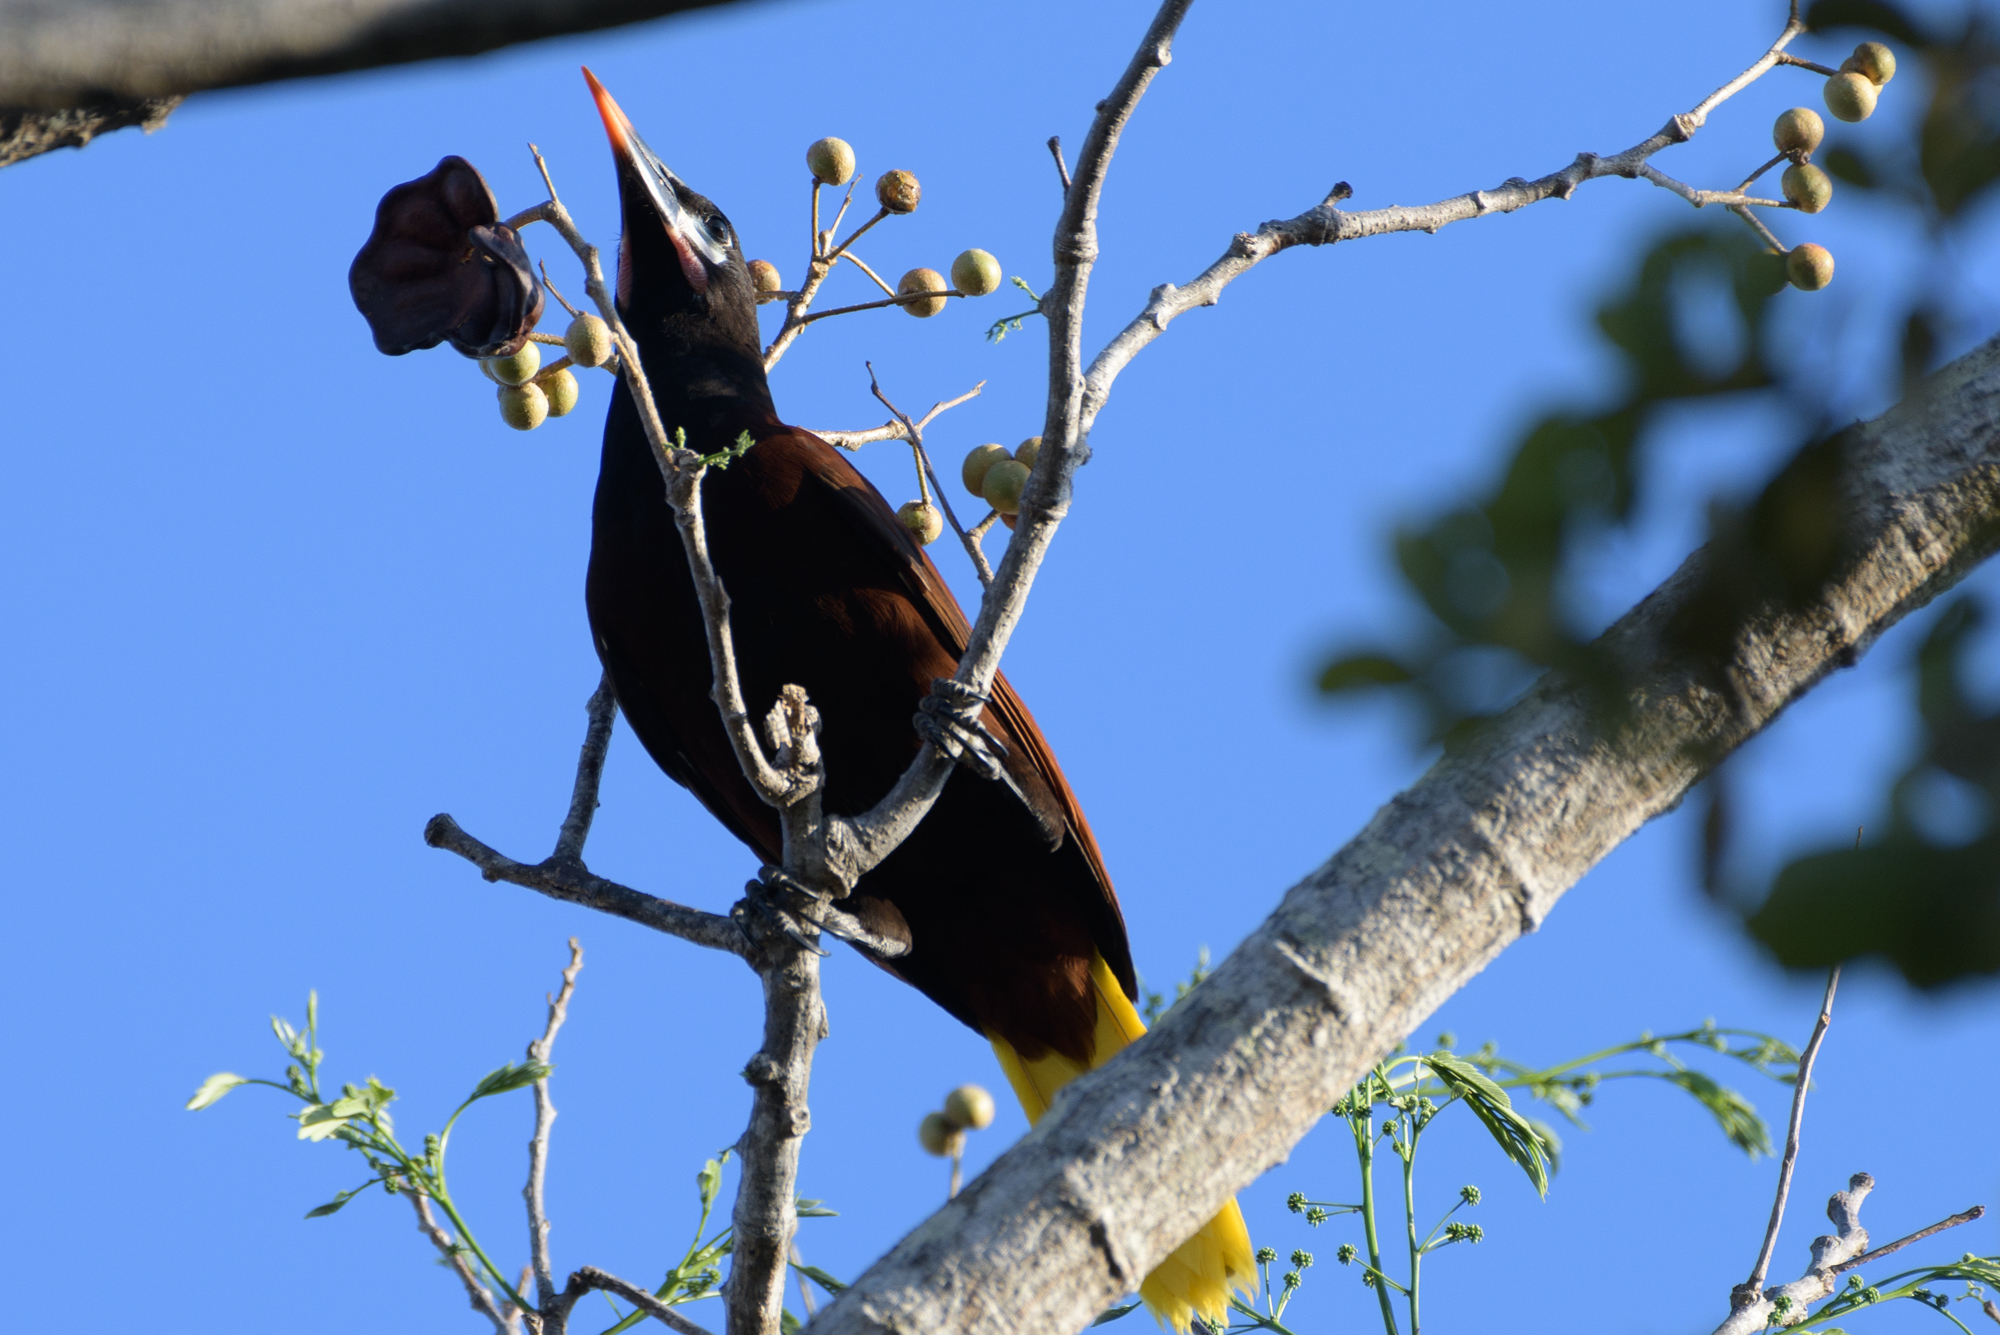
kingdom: Animalia
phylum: Chordata
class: Aves
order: Passeriformes
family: Icteridae
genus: Psarocolius
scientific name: Psarocolius montezuma
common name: Montezuma oropendola
